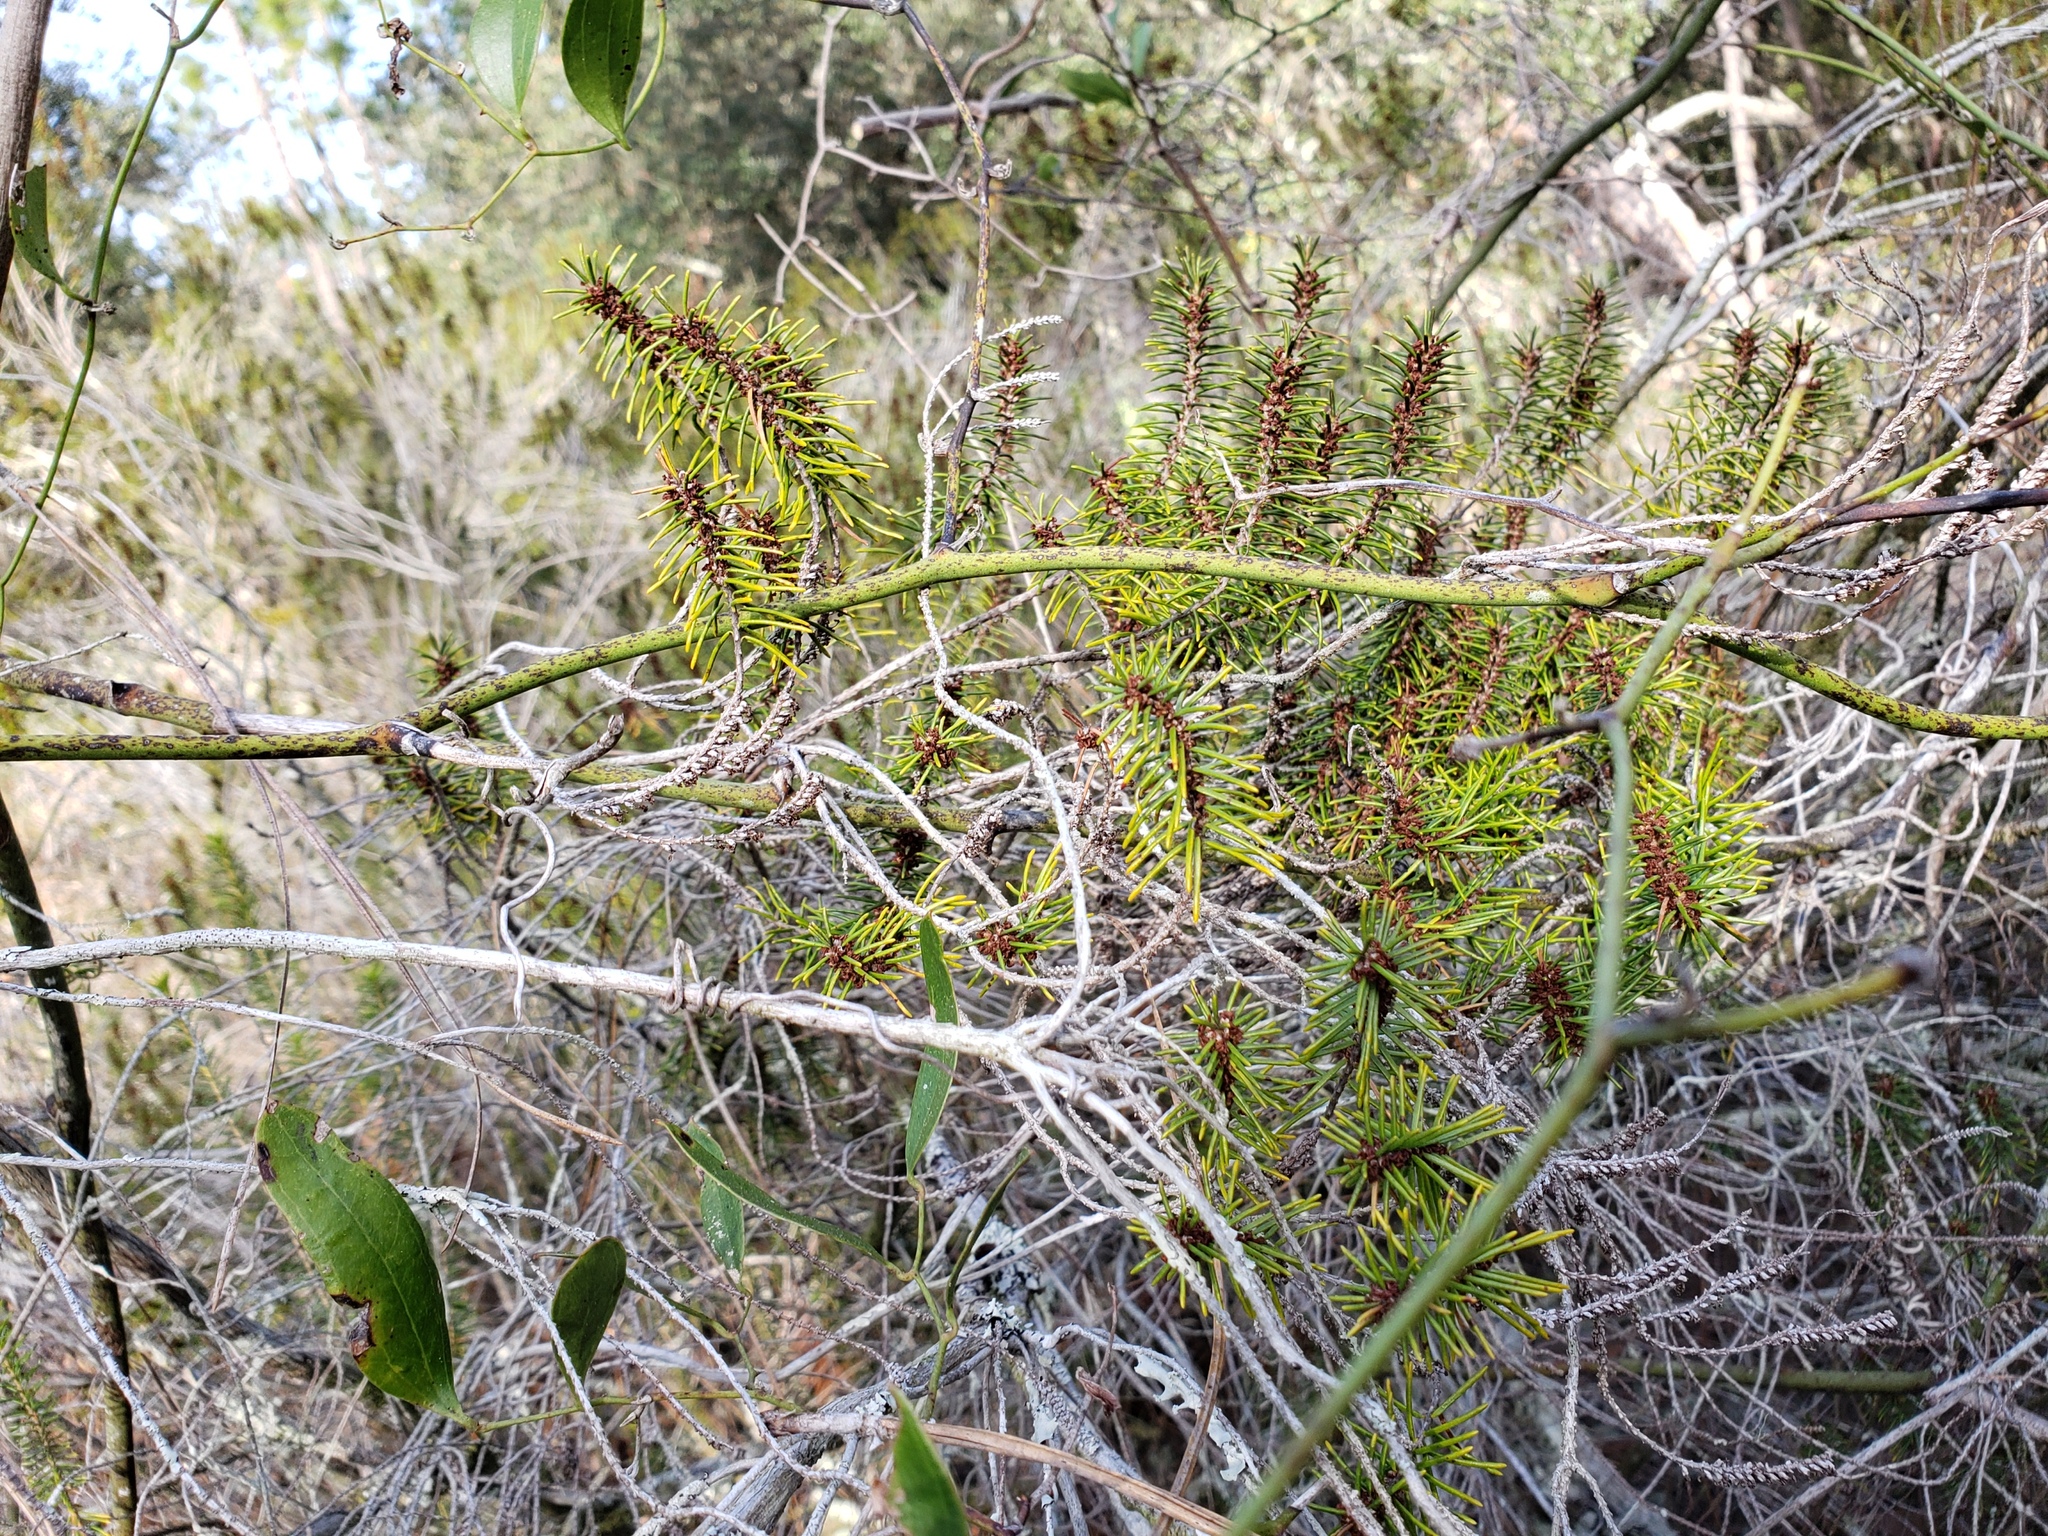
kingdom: Plantae
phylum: Tracheophyta
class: Magnoliopsida
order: Ericales
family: Ericaceae
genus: Ceratiola
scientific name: Ceratiola ericoides
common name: Sandhill-rosemary
